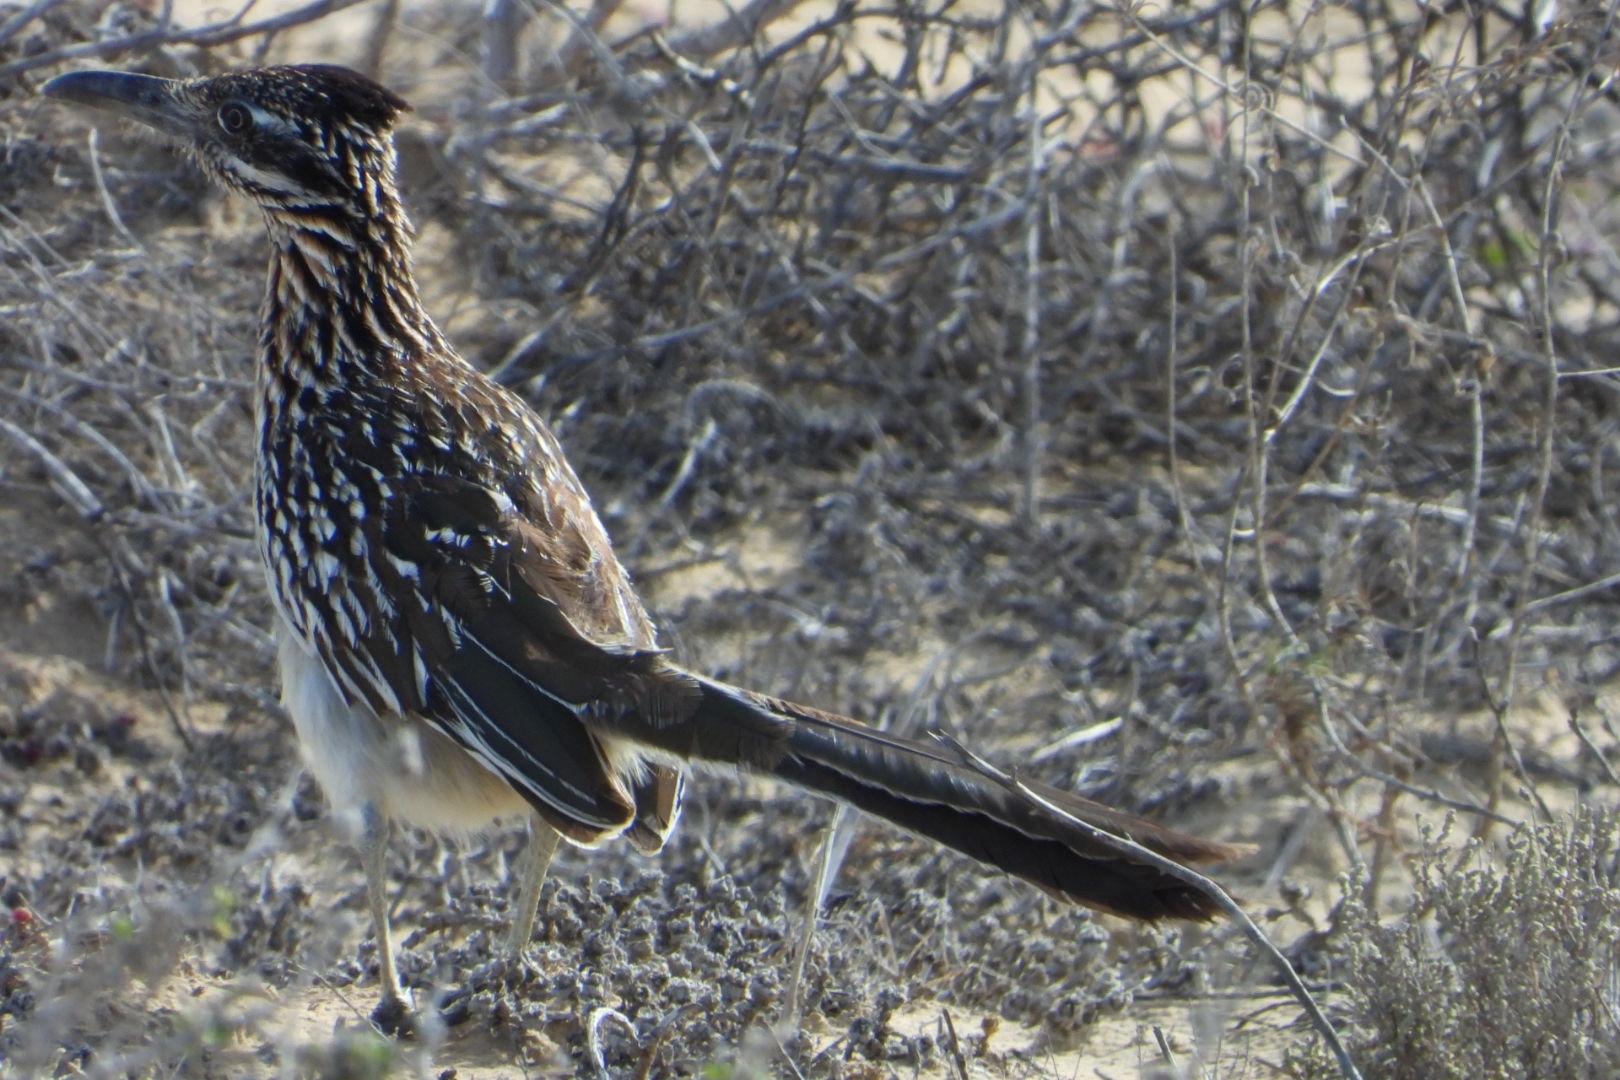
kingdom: Animalia
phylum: Chordata
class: Aves
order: Cuculiformes
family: Cuculidae
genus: Geococcyx
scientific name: Geococcyx californianus
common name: Greater roadrunner
